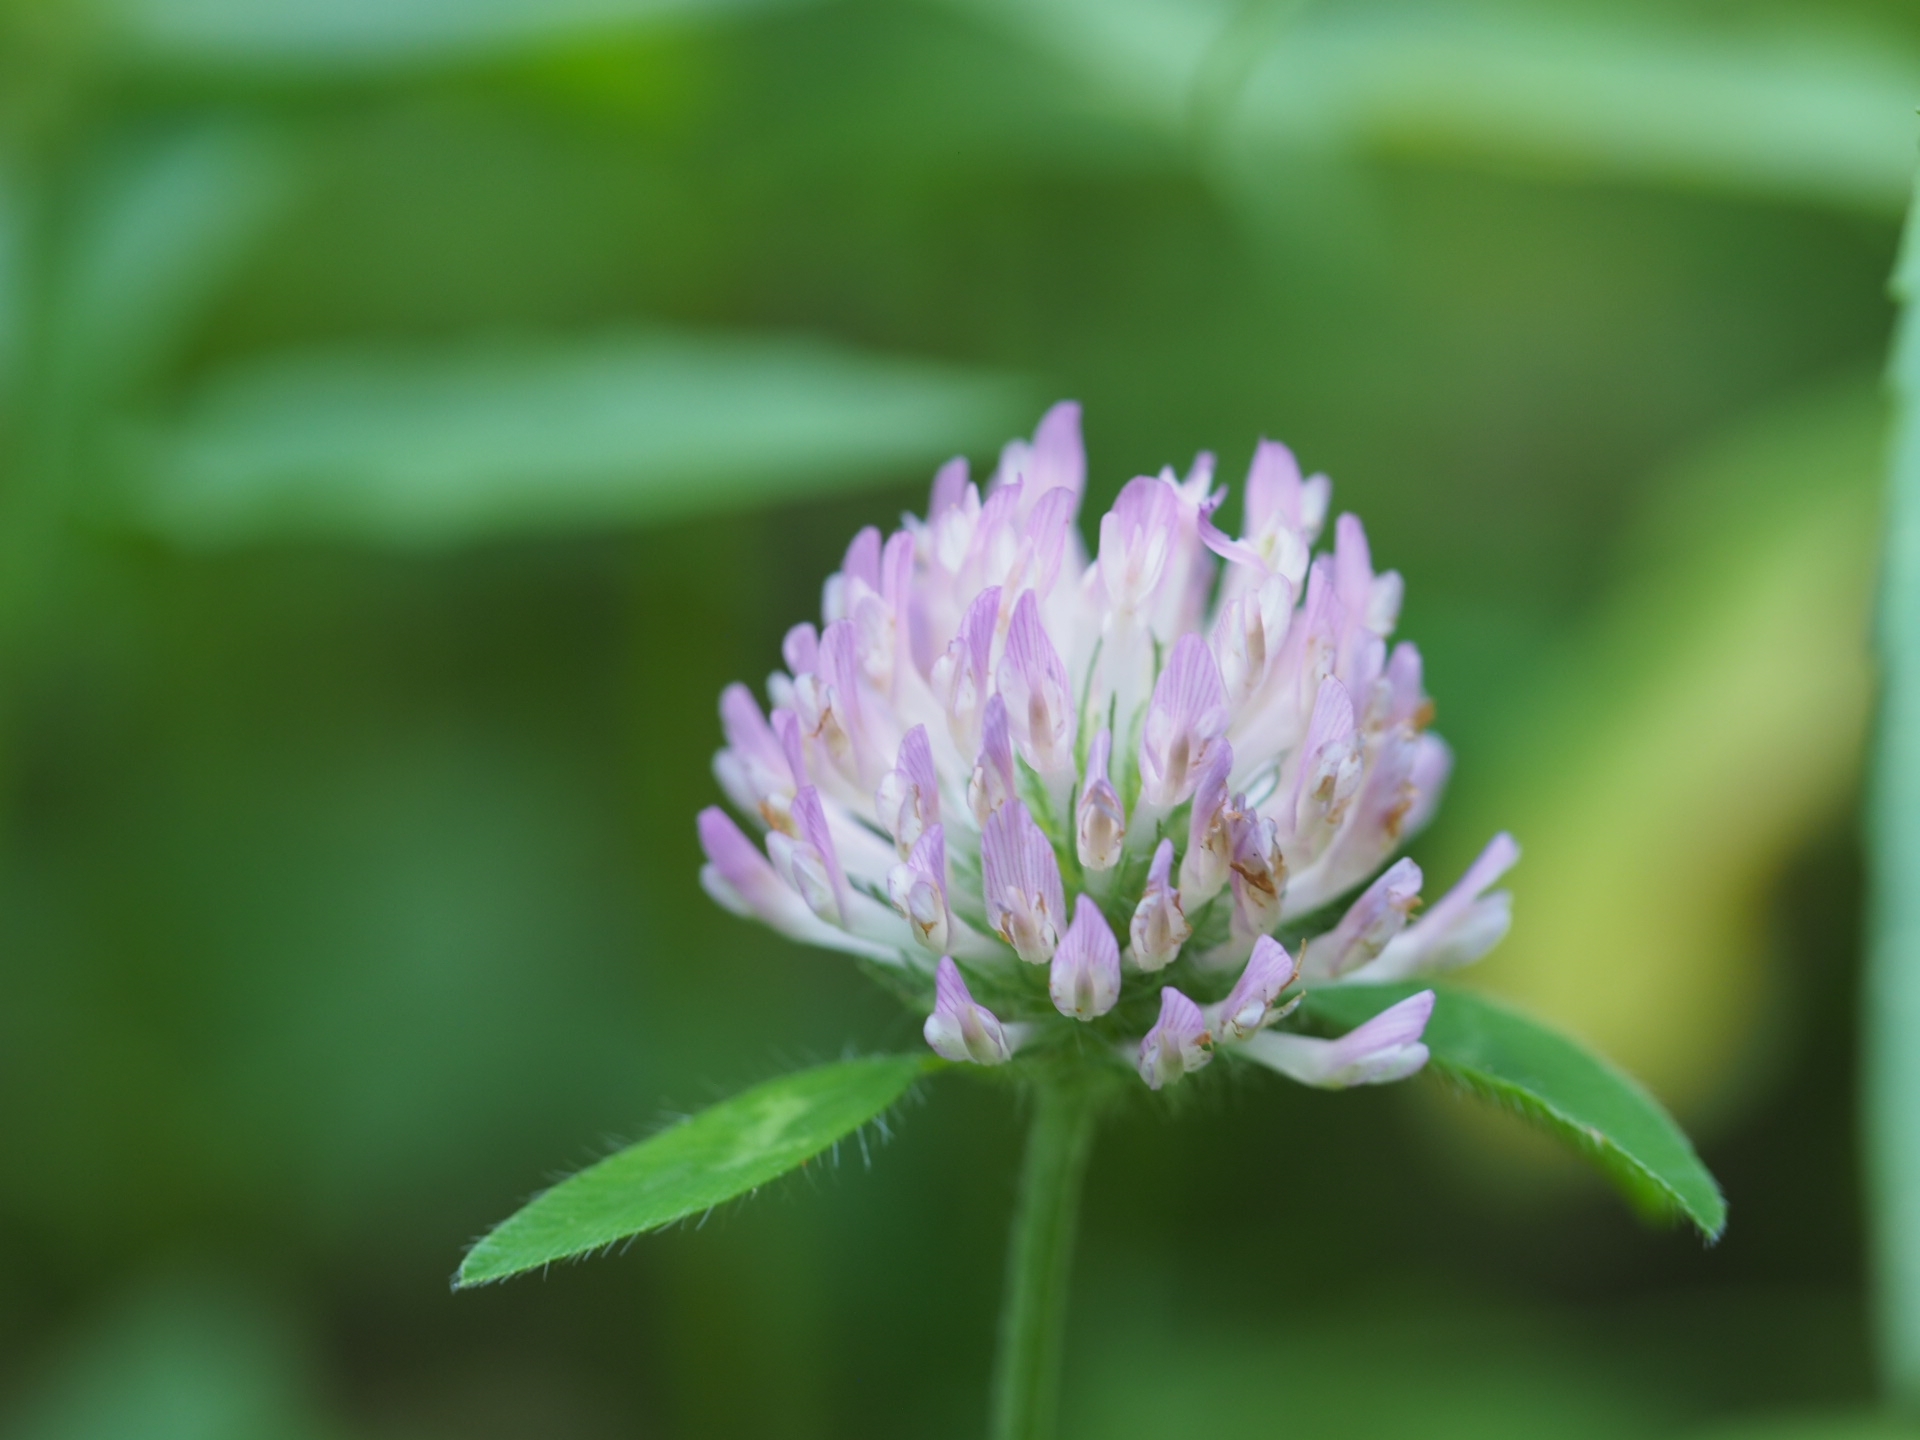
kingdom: Plantae
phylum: Tracheophyta
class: Magnoliopsida
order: Fabales
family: Fabaceae
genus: Trifolium
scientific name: Trifolium pratense
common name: Red clover
